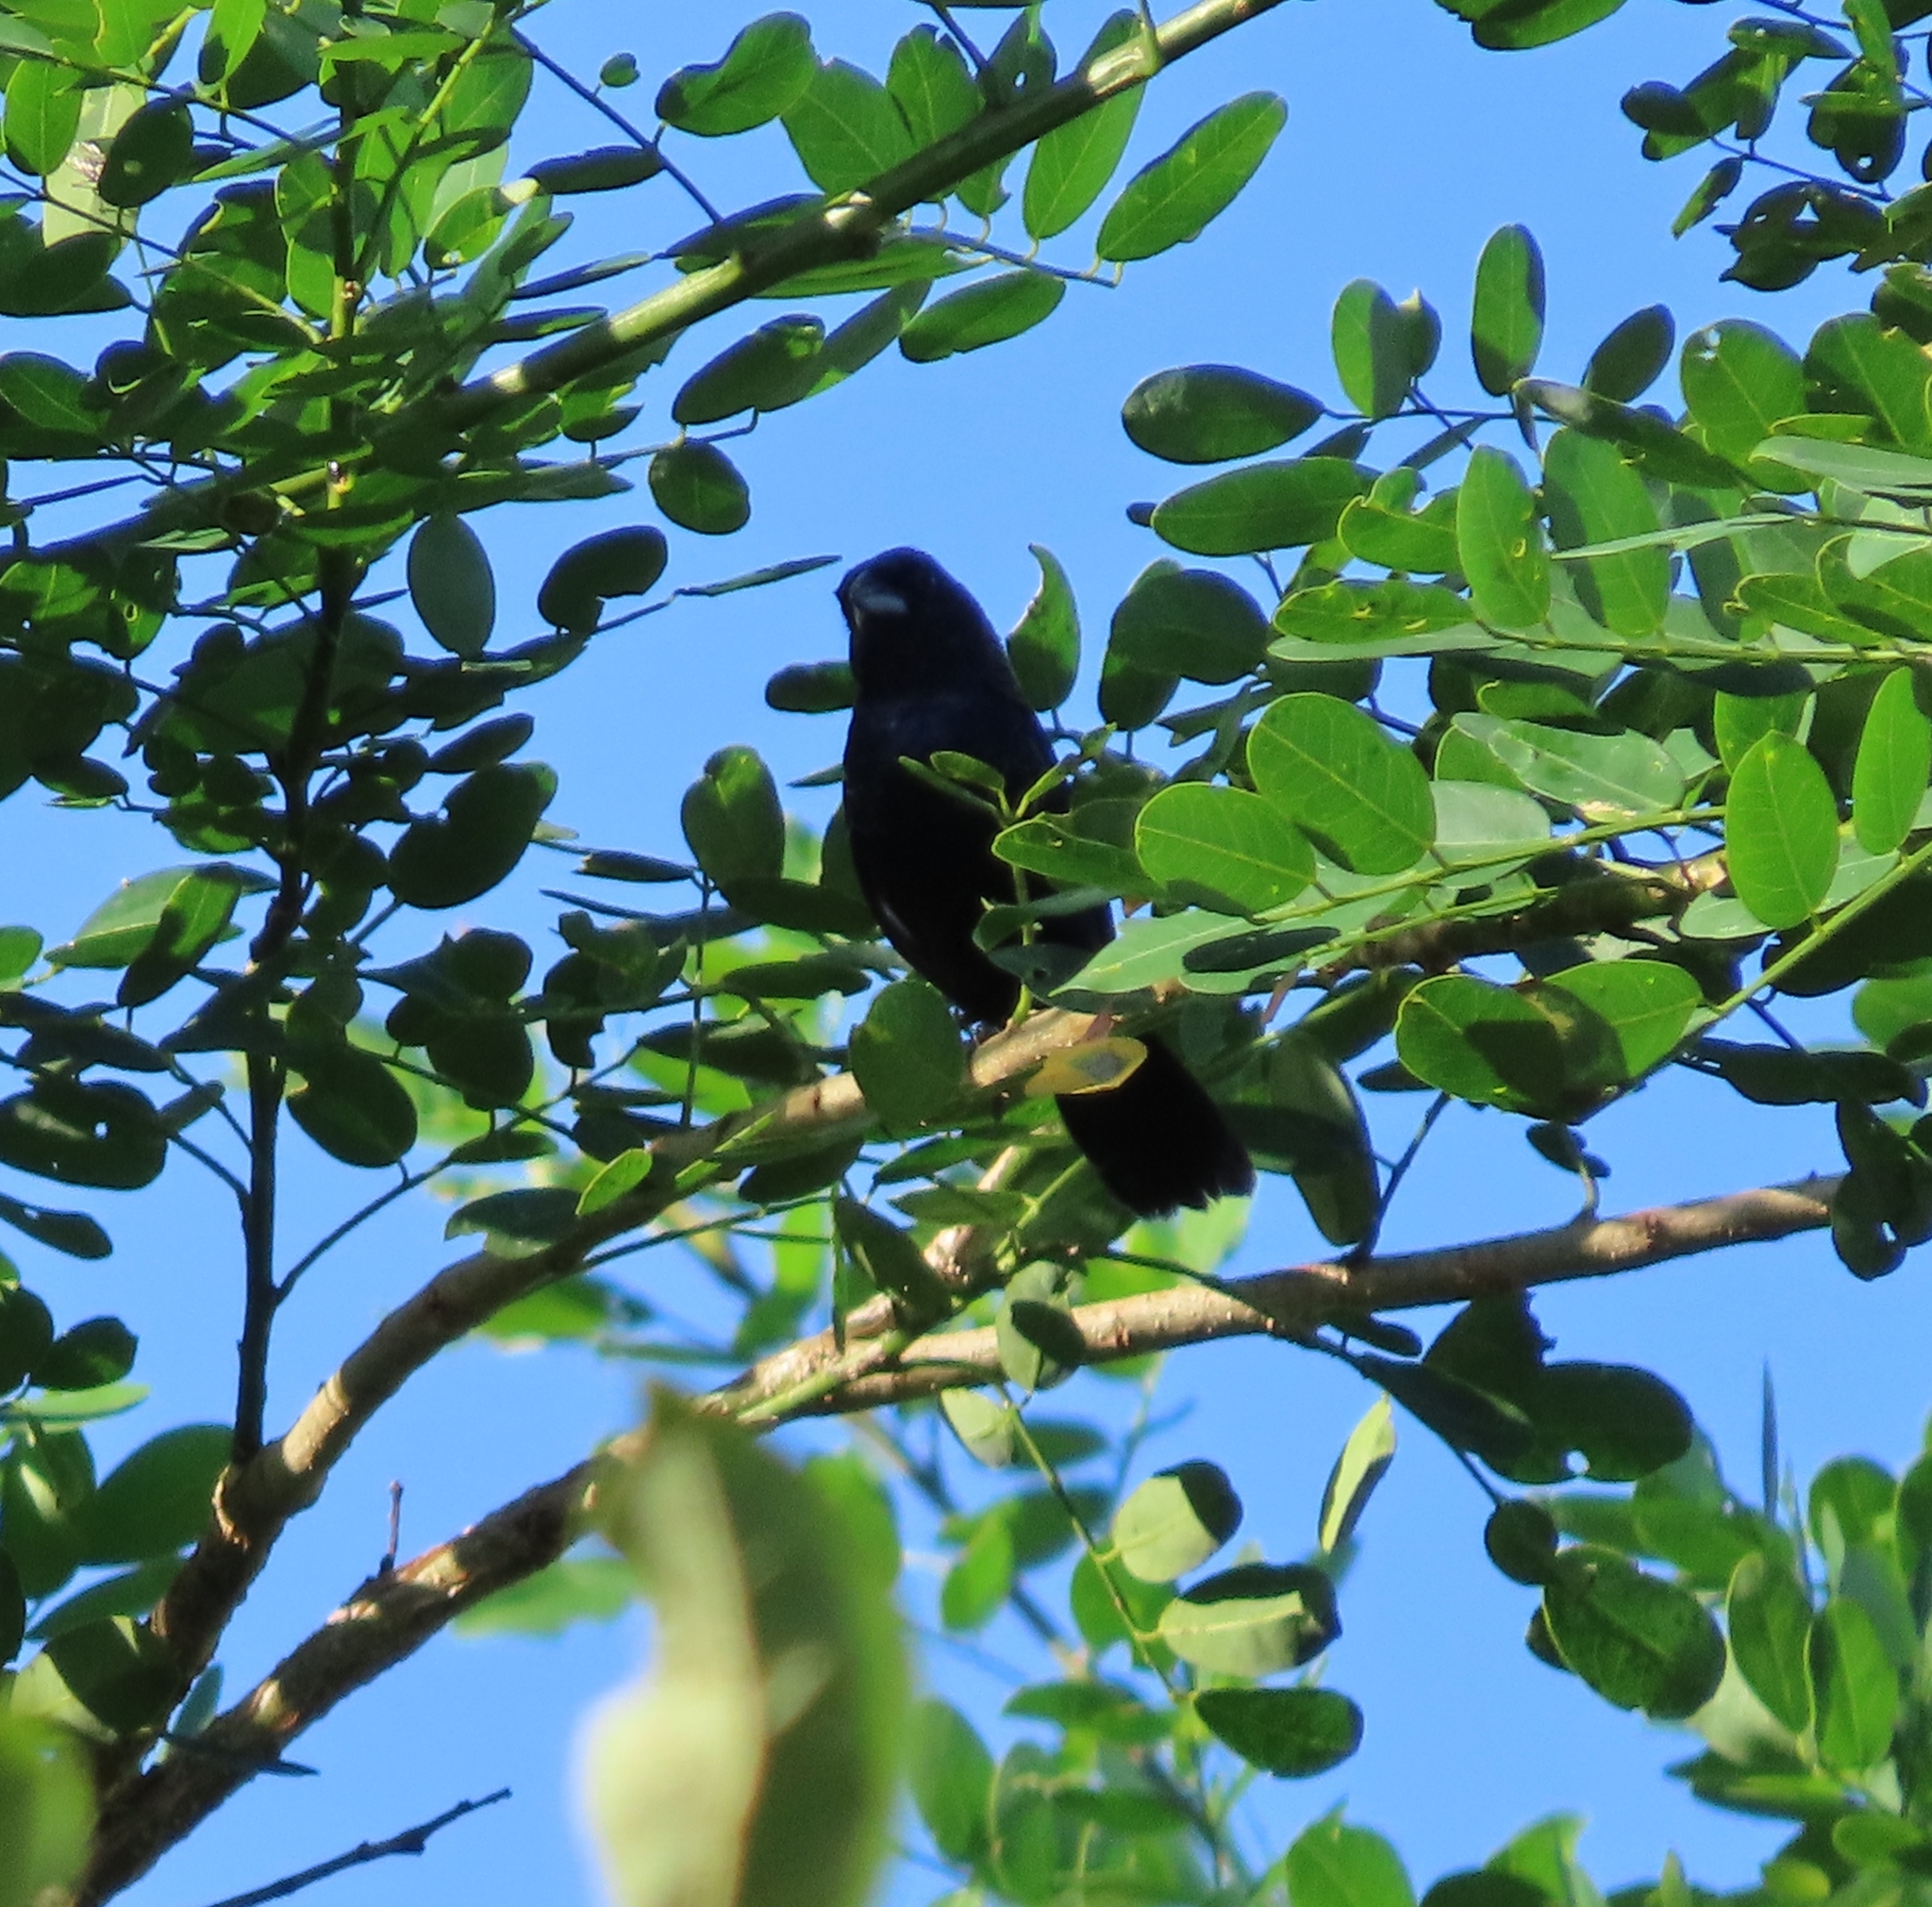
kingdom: Animalia
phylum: Chordata
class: Aves
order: Passeriformes
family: Cardinalidae
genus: Cyanocompsa
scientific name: Cyanocompsa cyanoides
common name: Blue-black grosbeak
